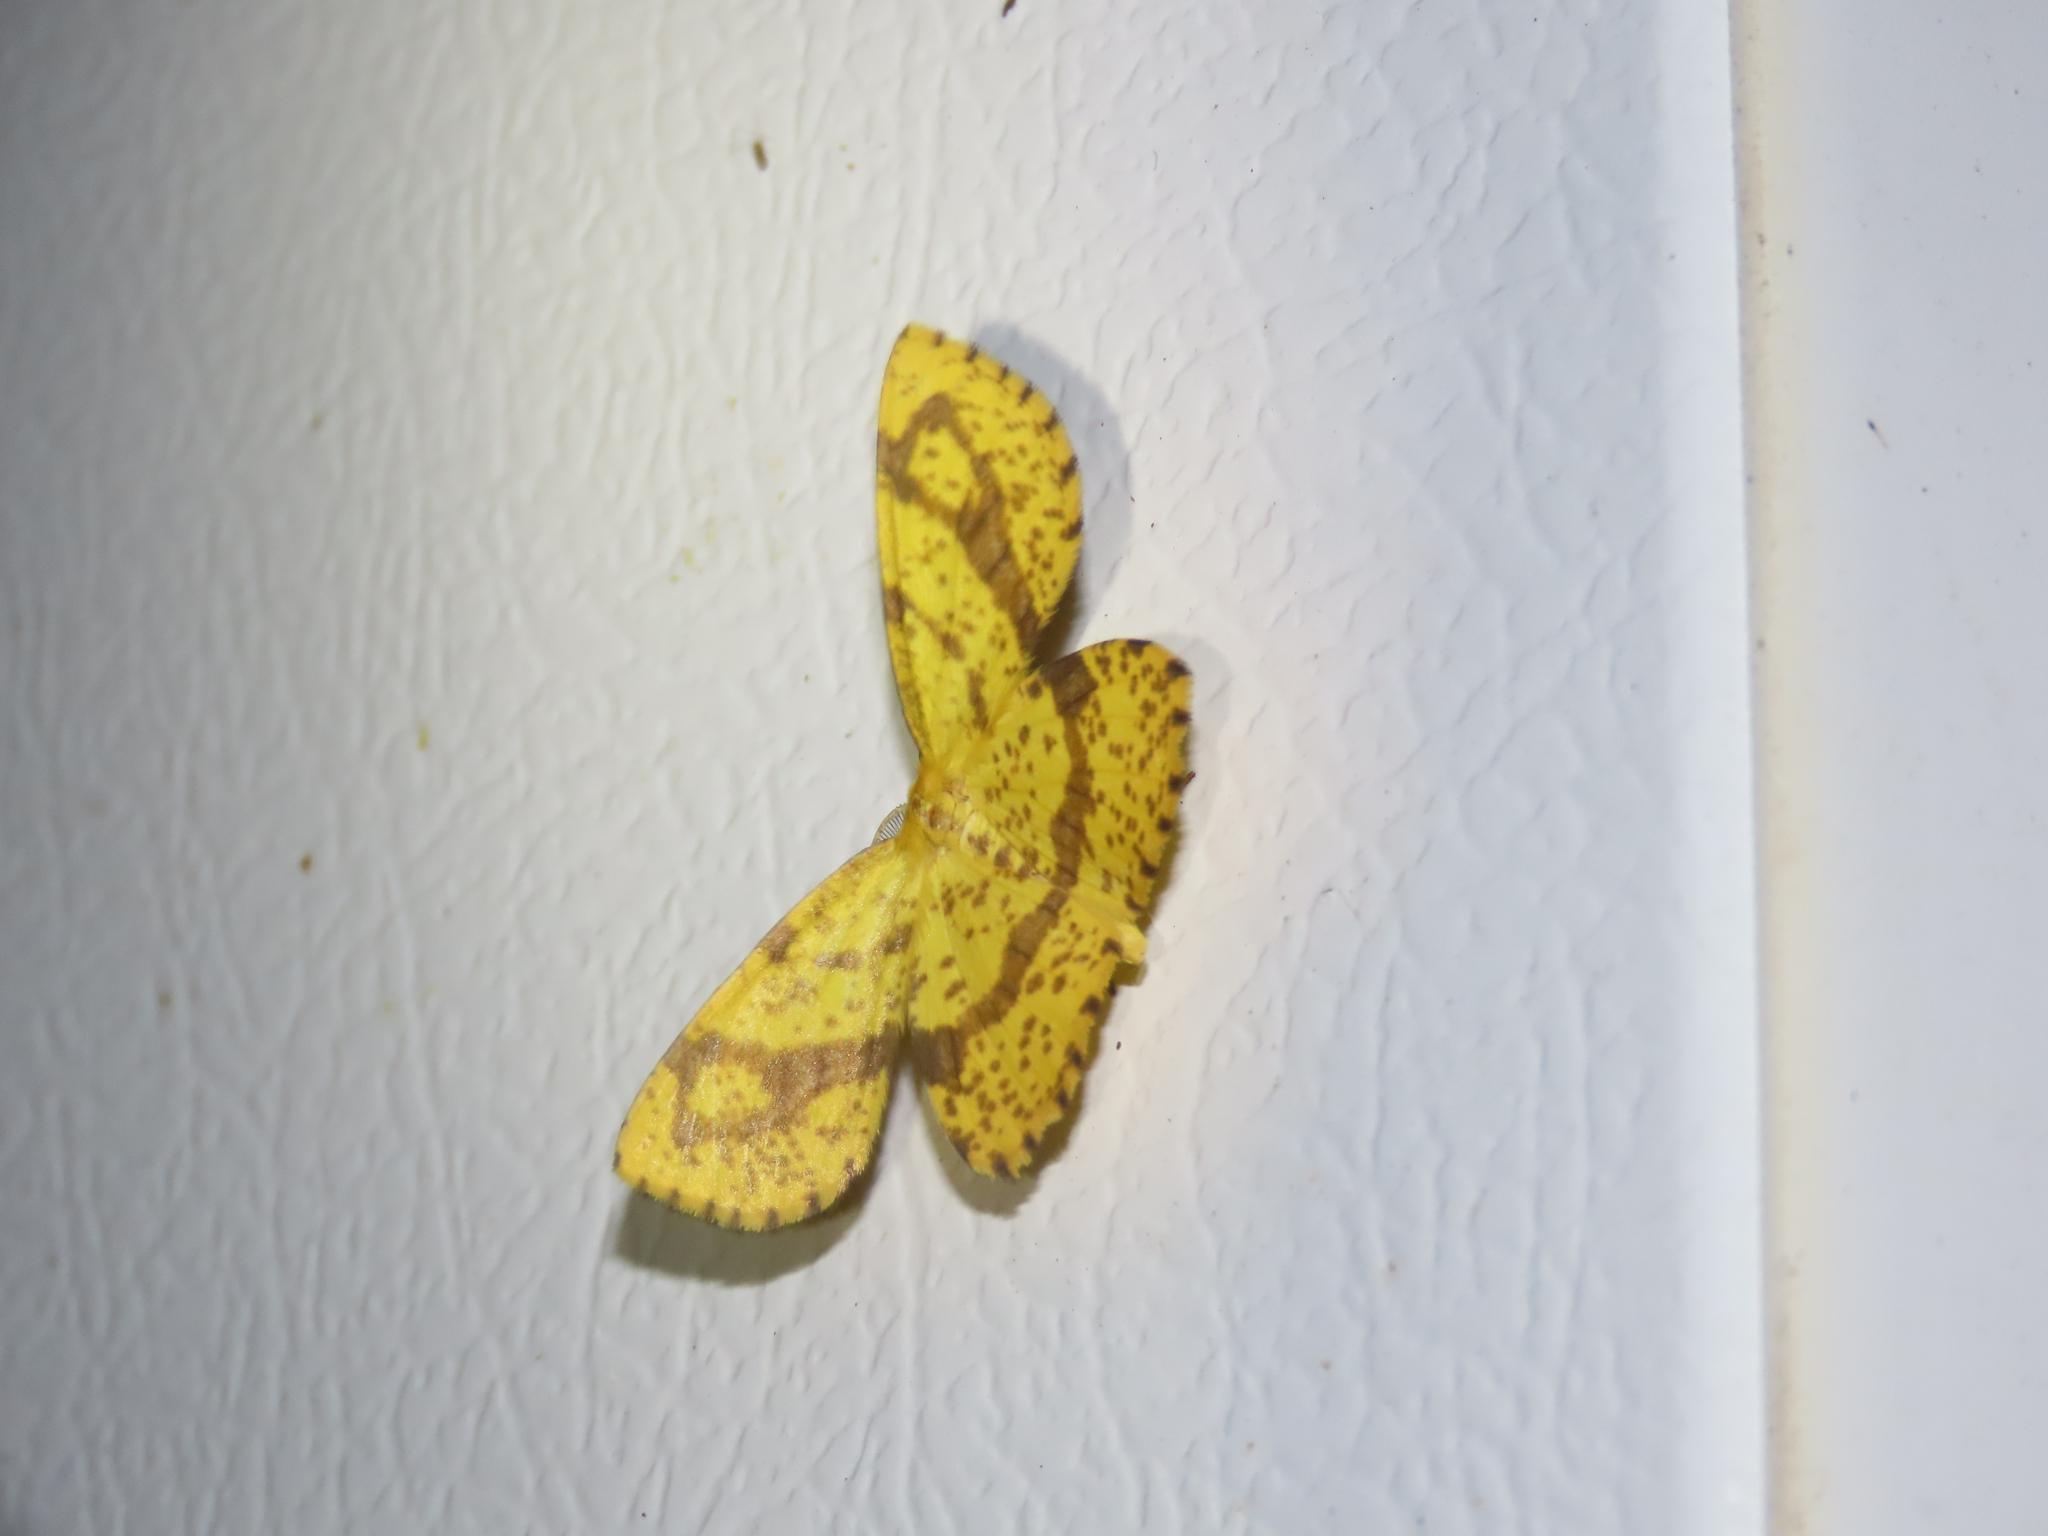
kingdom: Animalia
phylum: Arthropoda
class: Insecta
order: Lepidoptera
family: Geometridae
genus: Xanthotype
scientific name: Xanthotype
